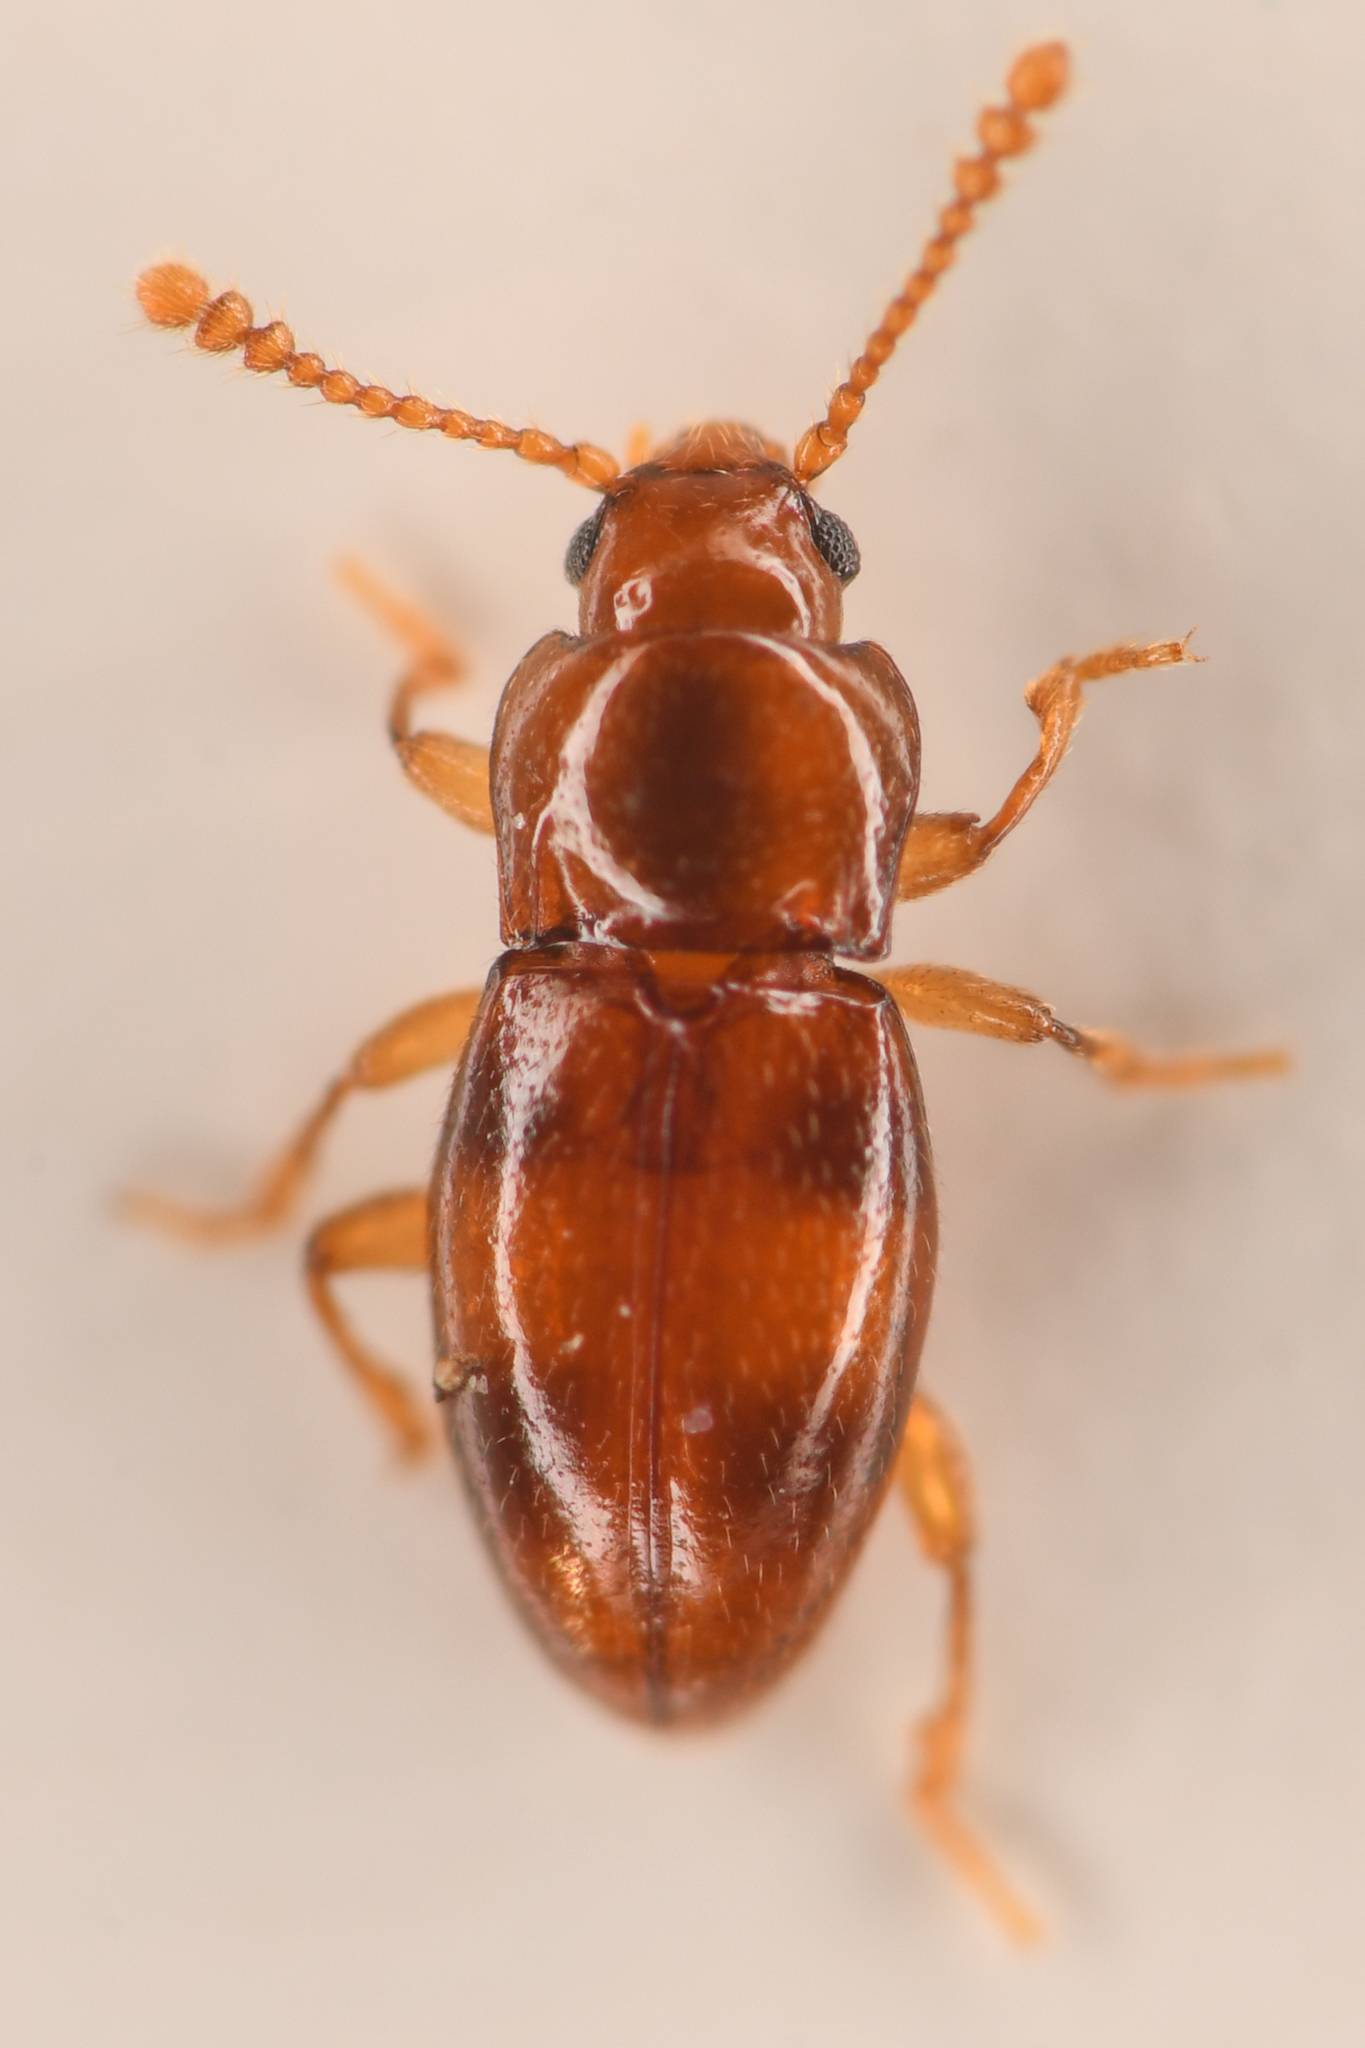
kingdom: Animalia
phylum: Arthropoda
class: Insecta
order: Coleoptera
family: Endomychidae
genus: Stethorhanis
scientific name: Stethorhanis borealis
